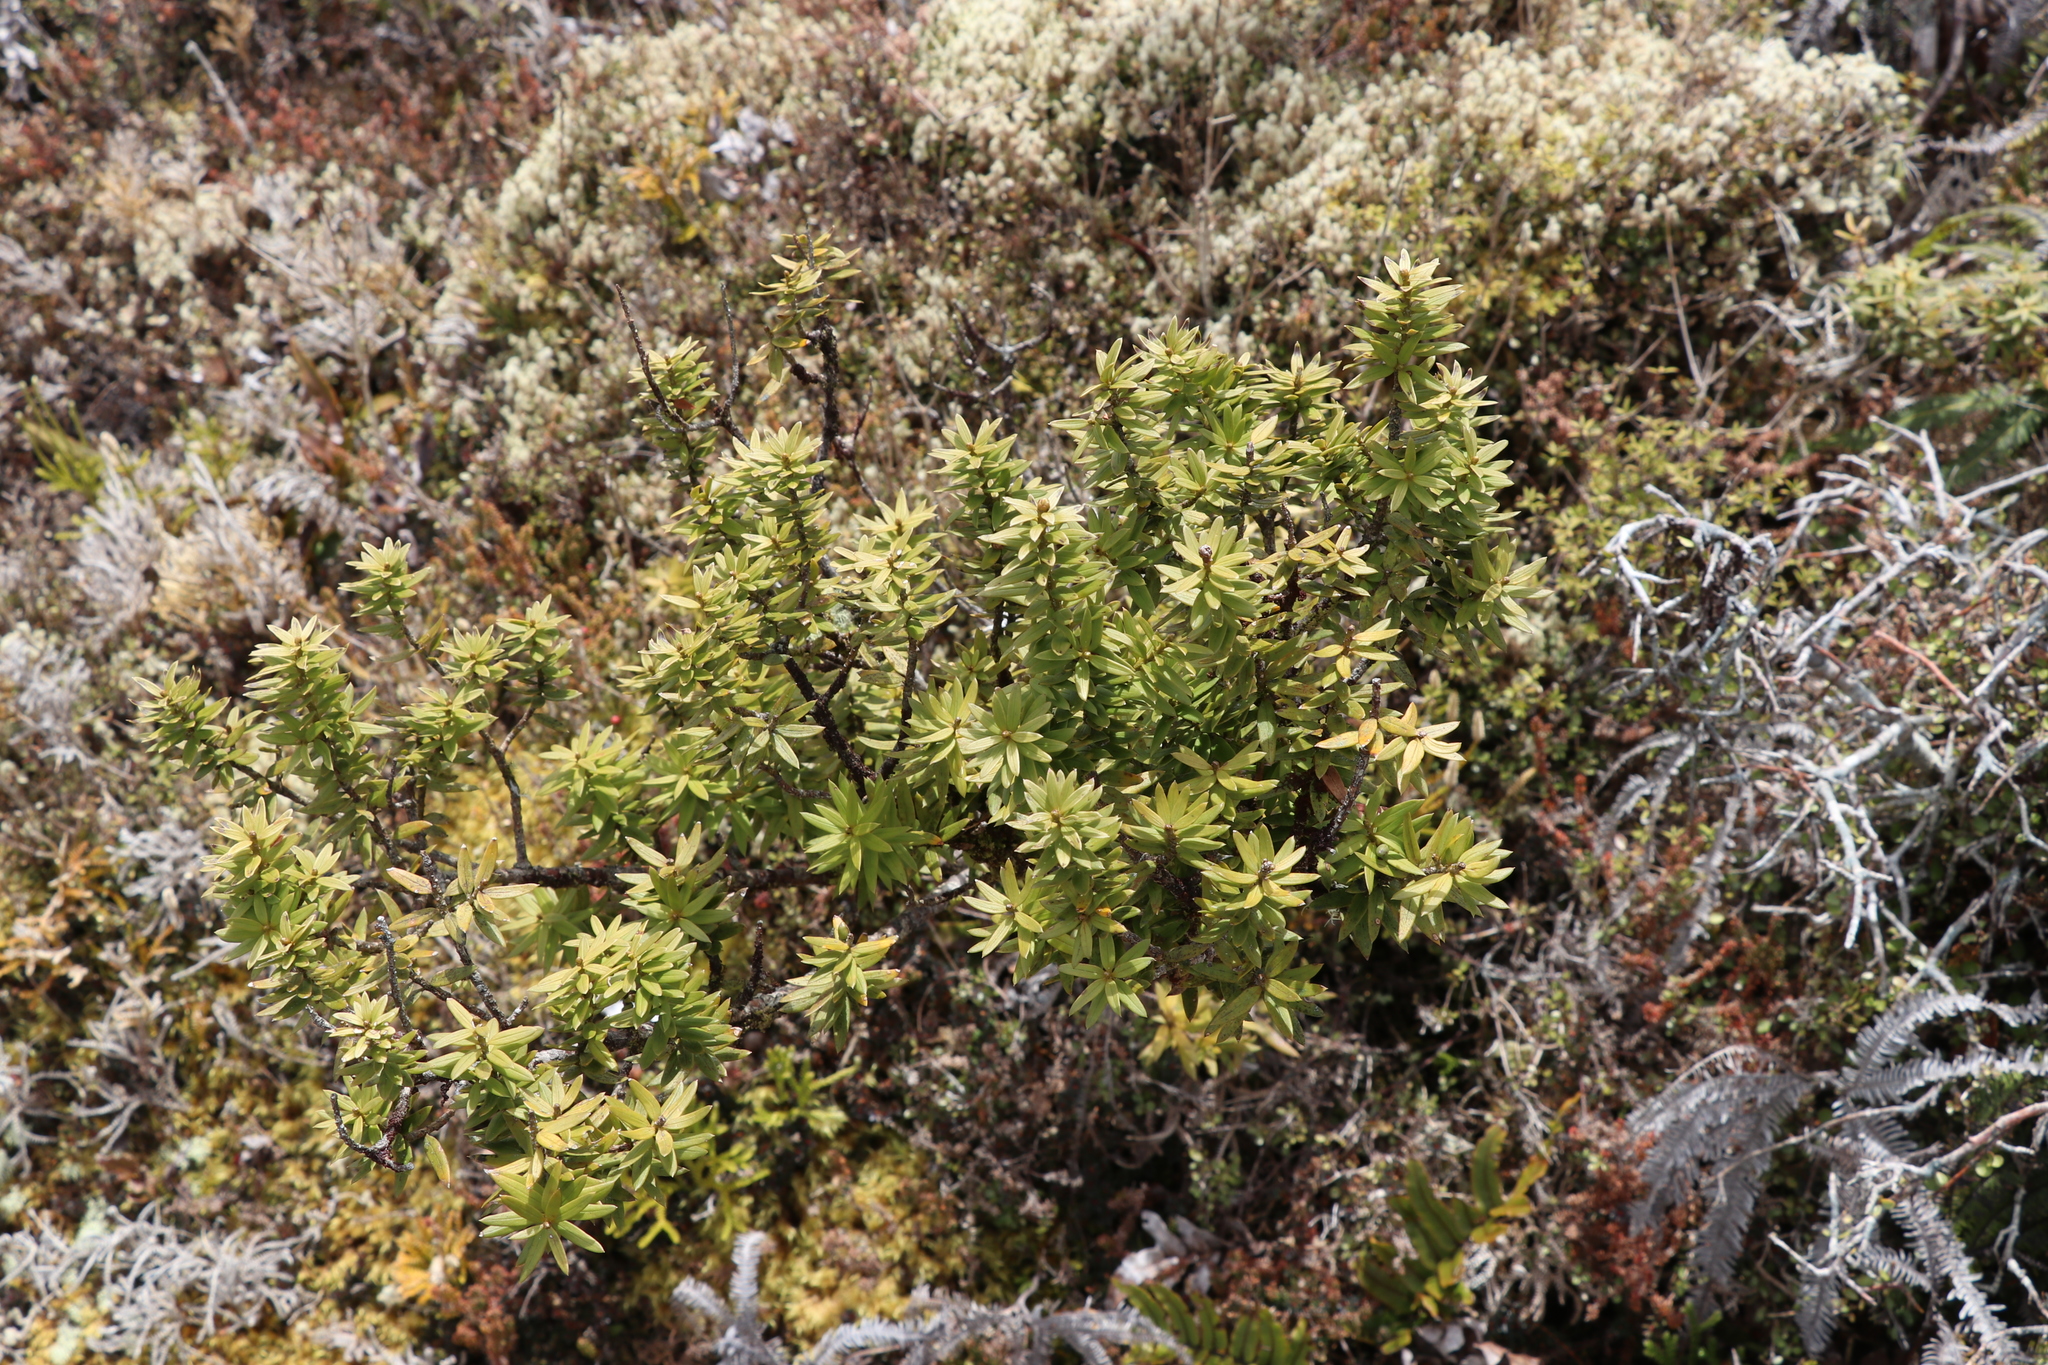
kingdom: Plantae
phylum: Tracheophyta
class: Pinopsida
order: Pinales
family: Podocarpaceae
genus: Podocarpus
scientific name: Podocarpus laetus
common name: Hall's totara
